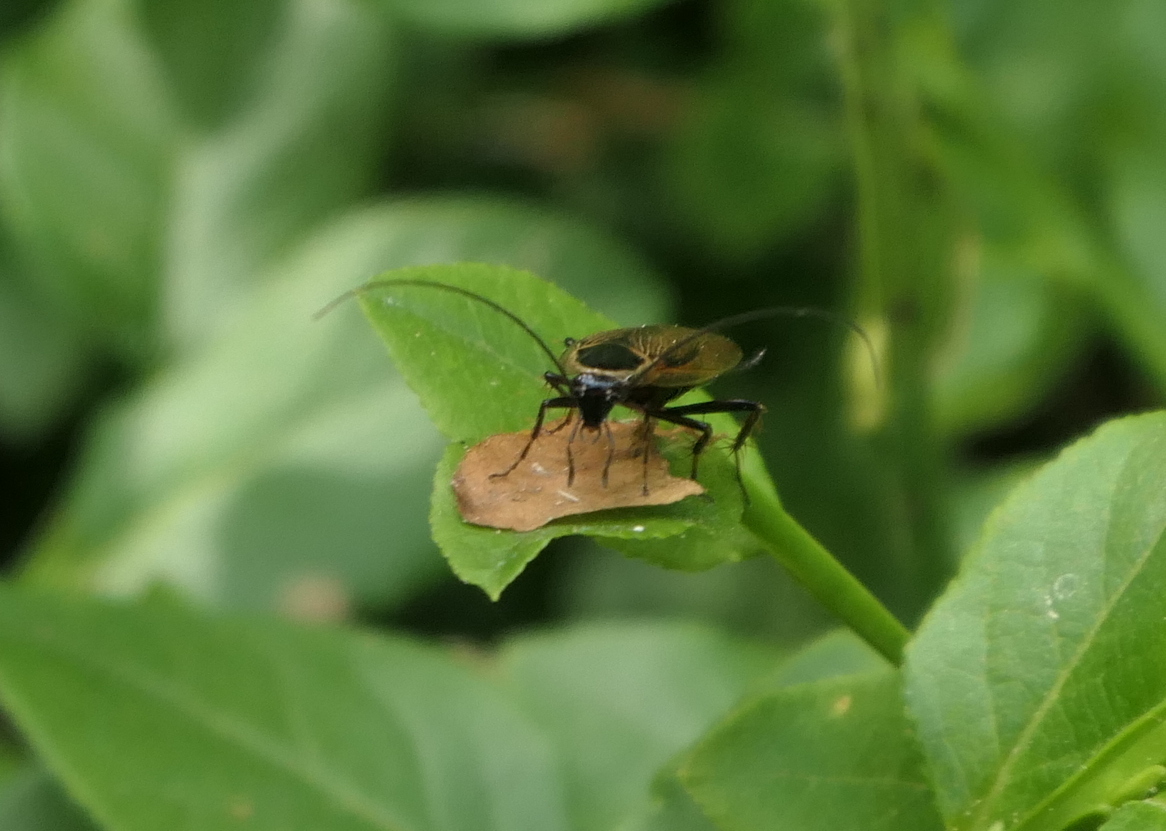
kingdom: Animalia
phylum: Arthropoda
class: Insecta
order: Blattodea
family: Ectobiidae
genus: Ectobius
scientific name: Ectobius sylvestris
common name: Forest cockroach
